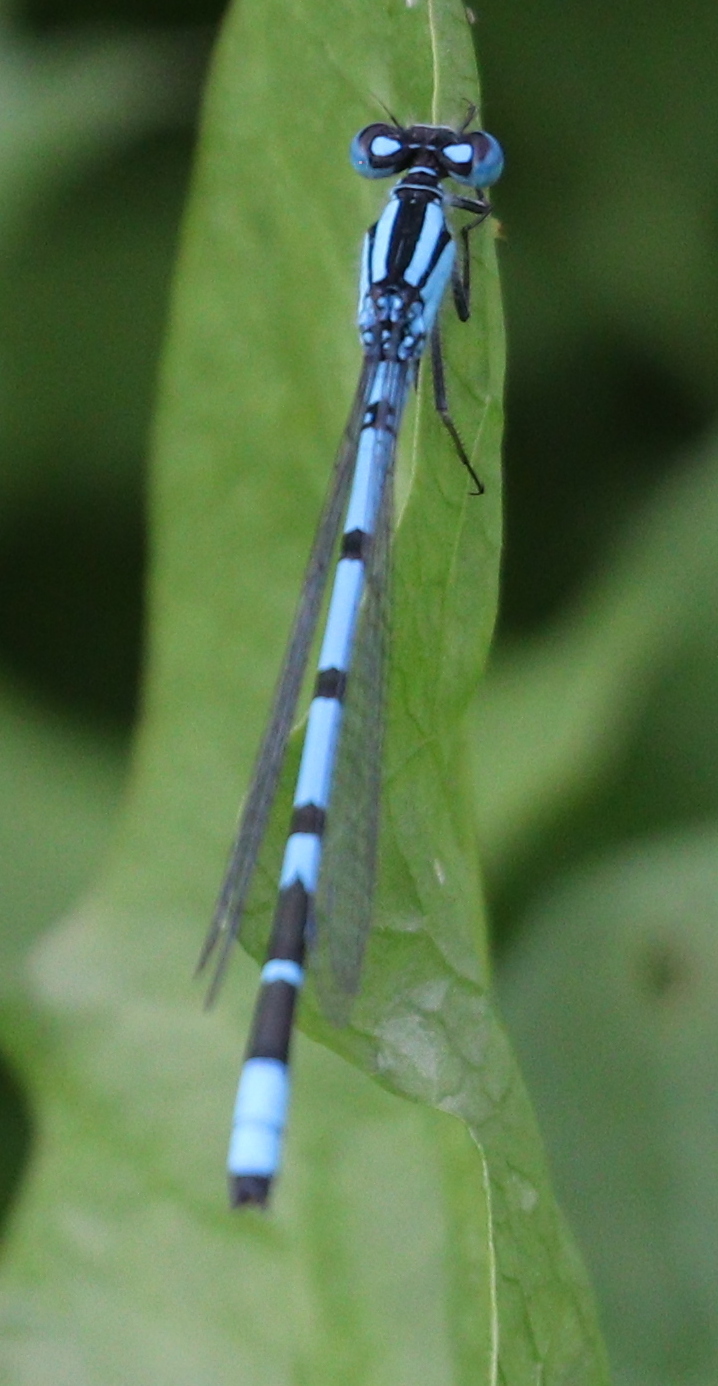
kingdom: Animalia
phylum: Arthropoda
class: Insecta
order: Odonata
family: Coenagrionidae
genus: Enallagma
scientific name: Enallagma cyathigerum
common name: Common blue damselfly
